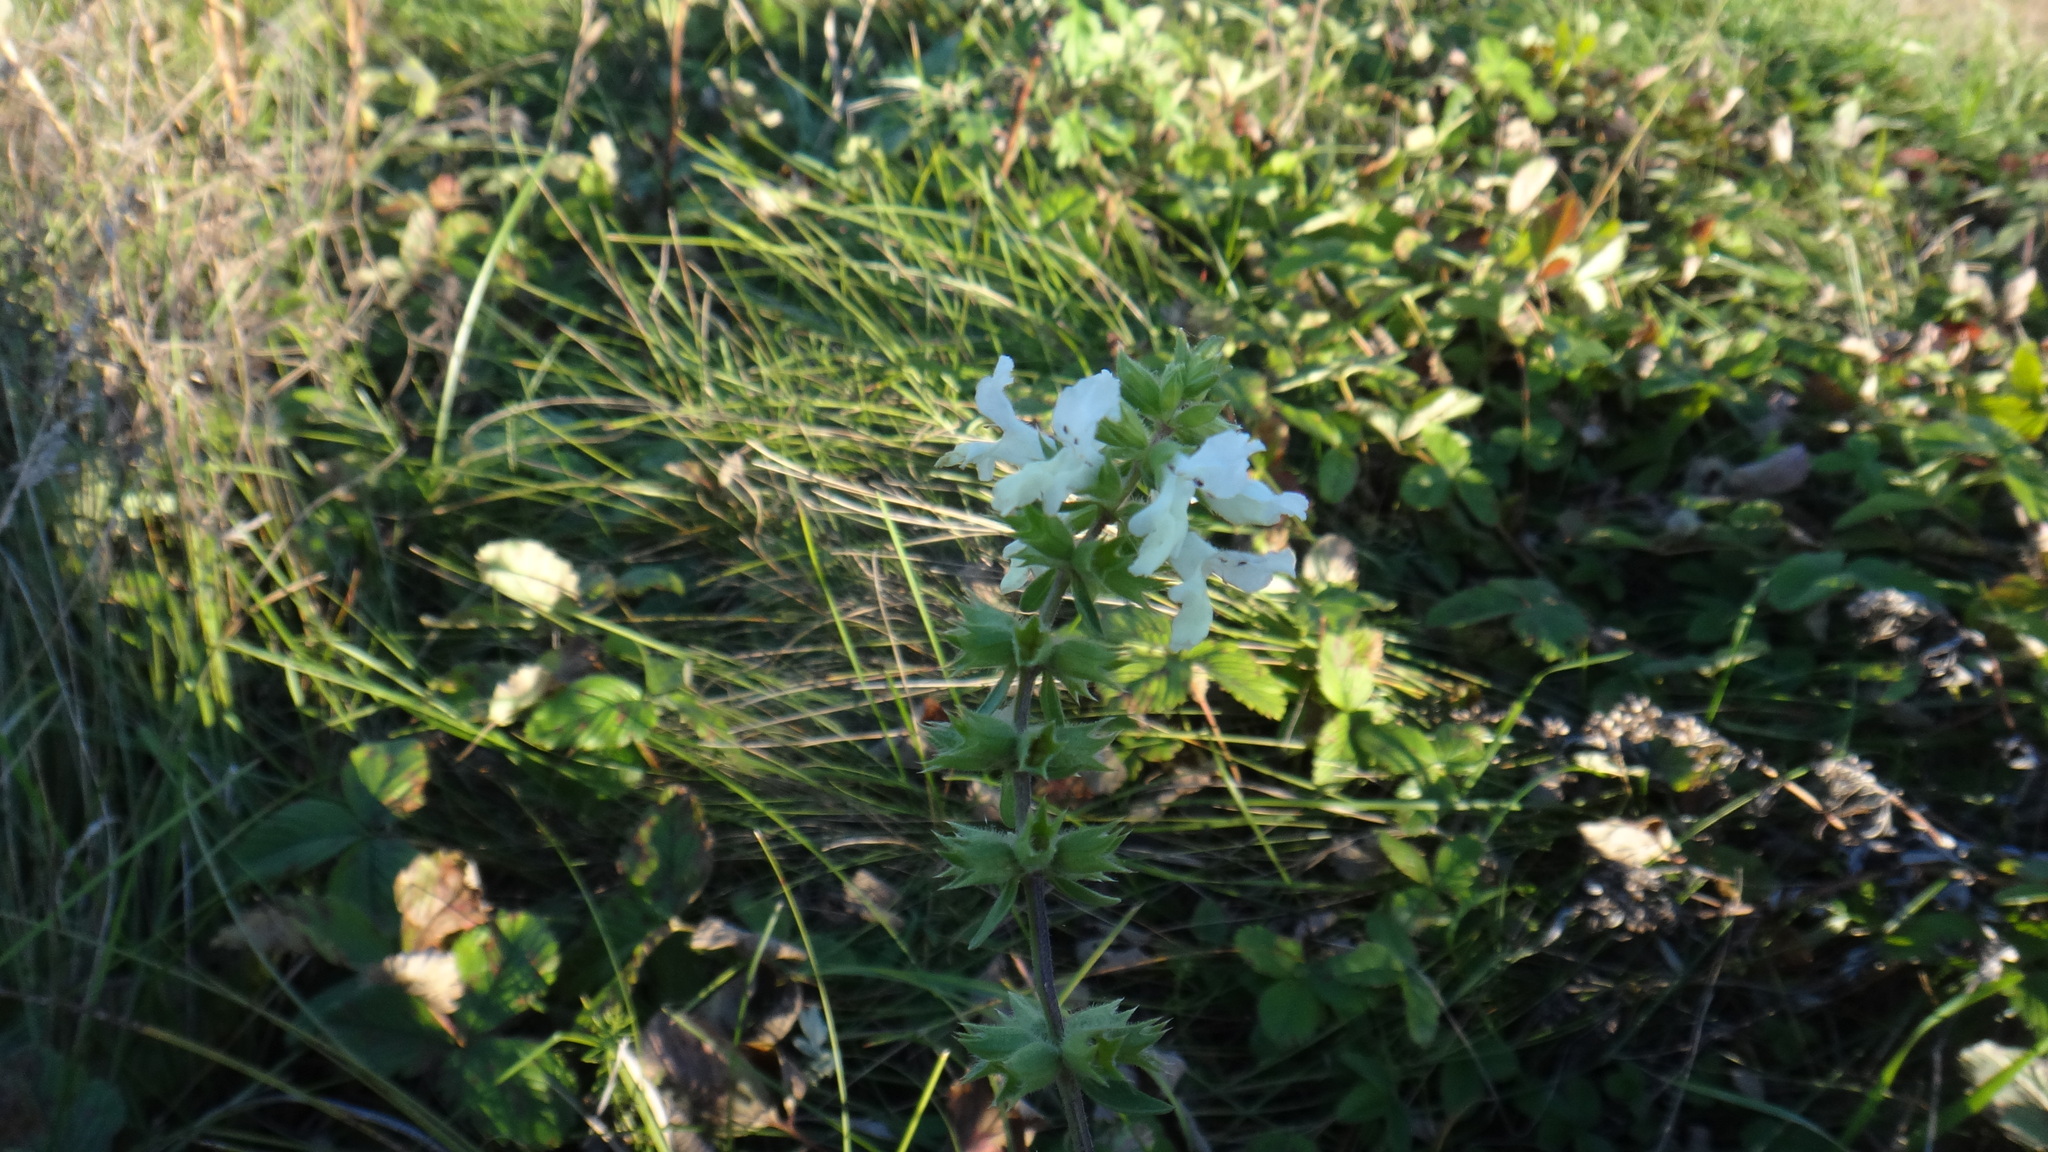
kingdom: Plantae
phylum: Tracheophyta
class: Magnoliopsida
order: Lamiales
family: Lamiaceae
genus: Stachys
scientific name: Stachys annua
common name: Annual yellow-woundwort
